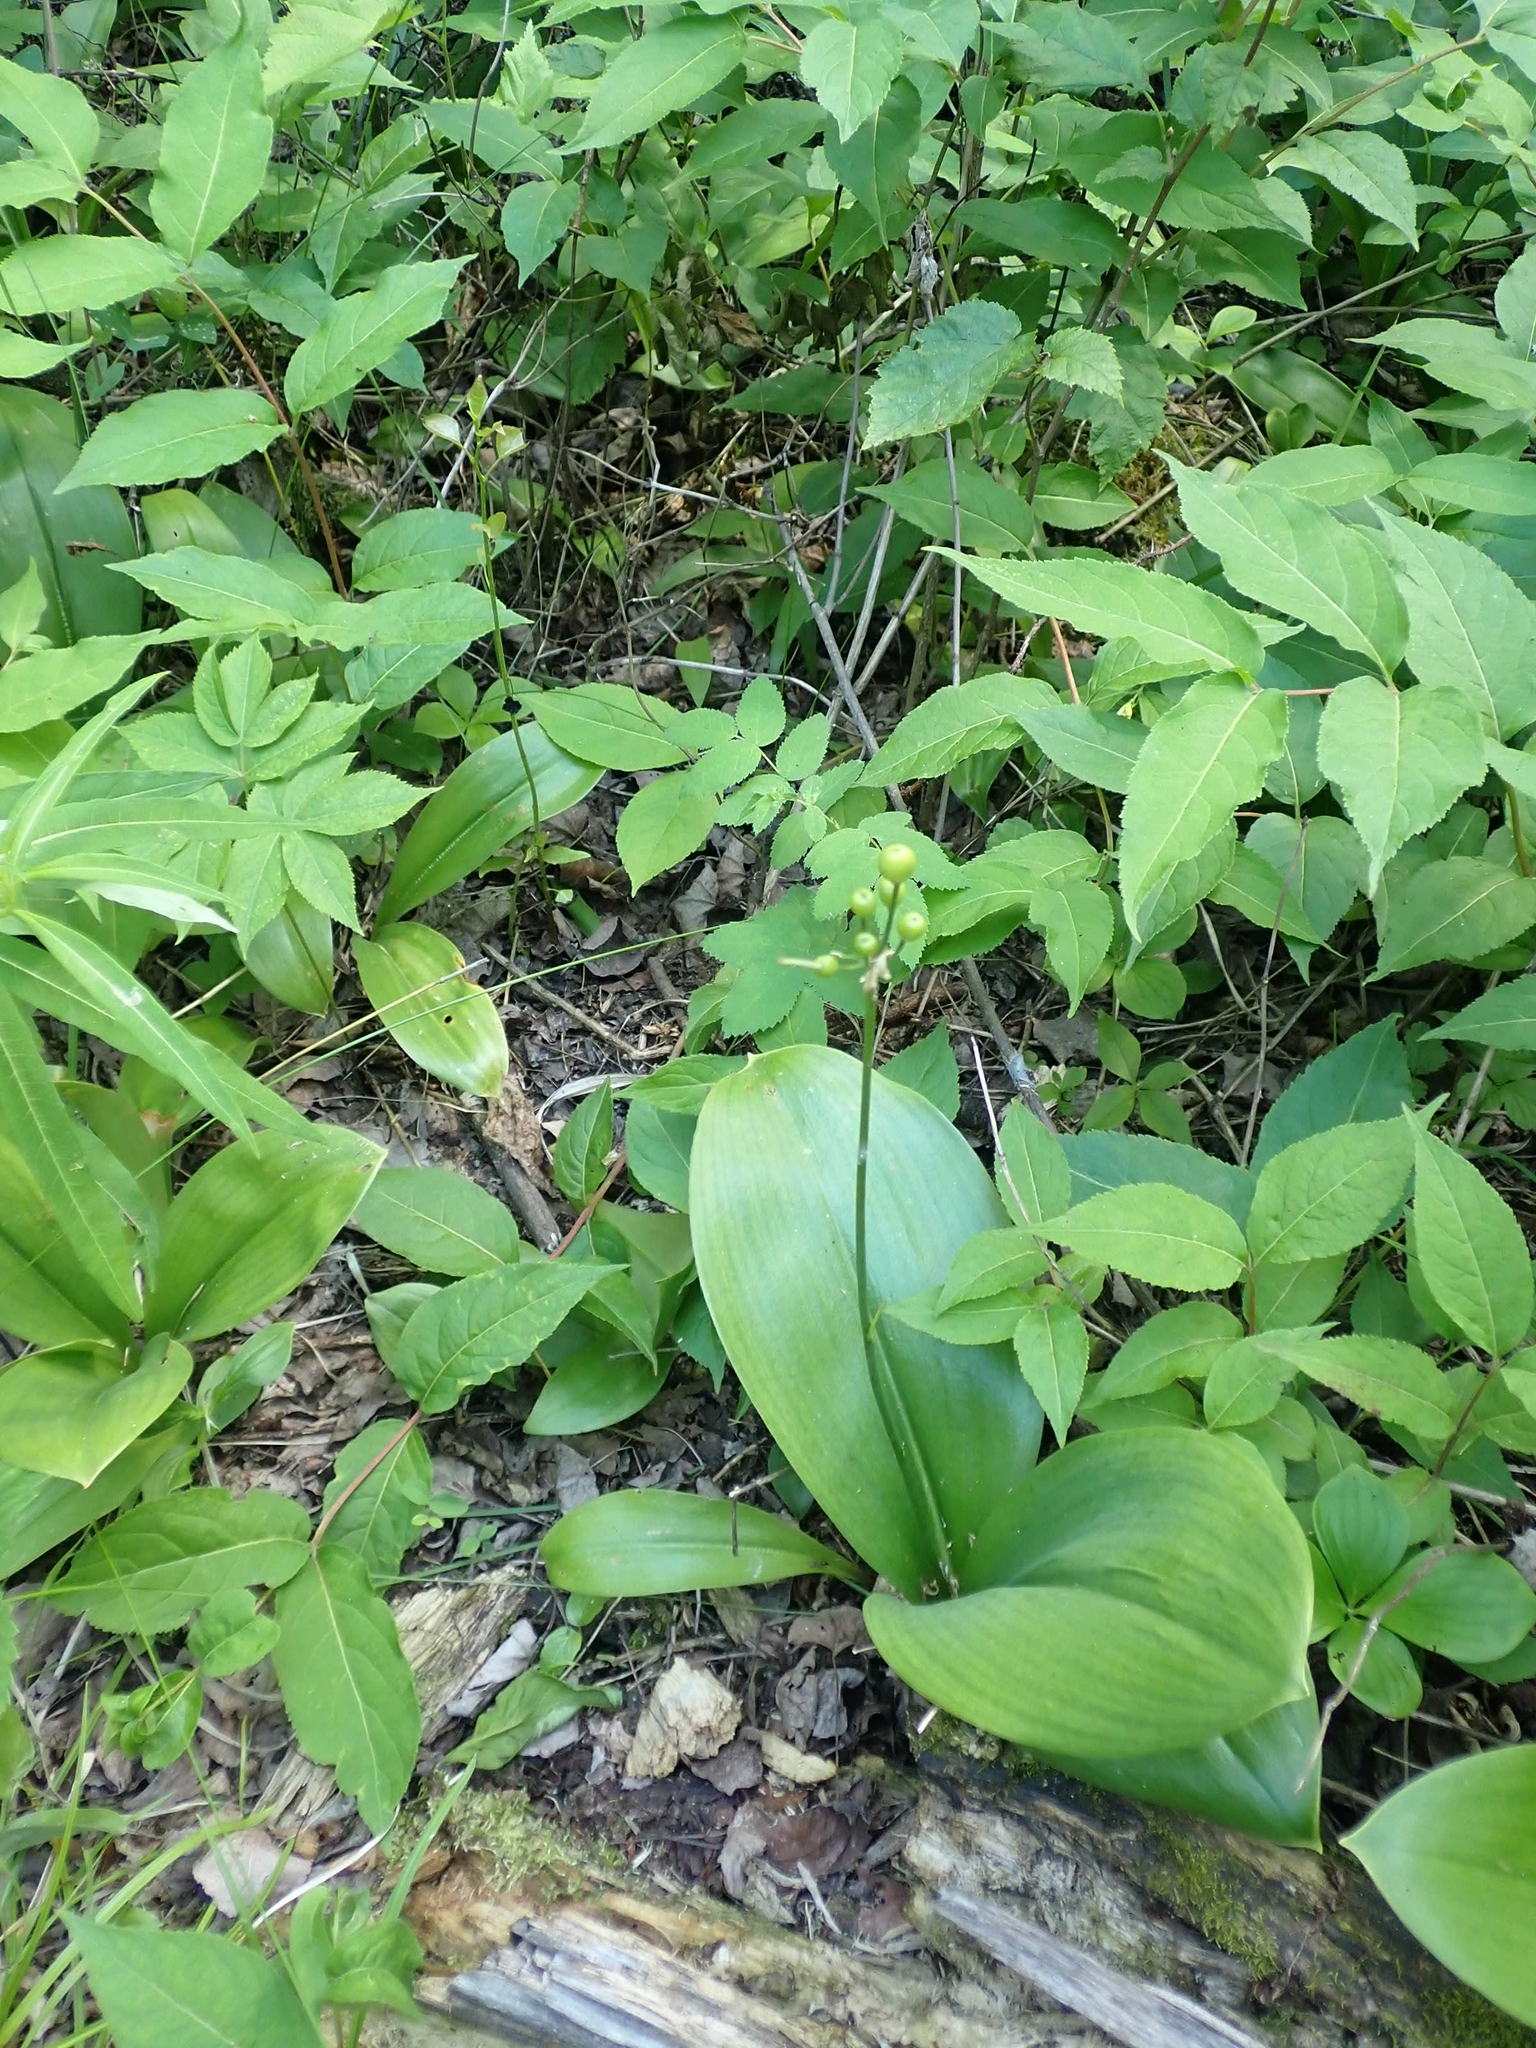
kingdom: Plantae
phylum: Tracheophyta
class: Liliopsida
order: Liliales
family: Liliaceae
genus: Clintonia
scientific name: Clintonia borealis
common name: Yellow clintonia
